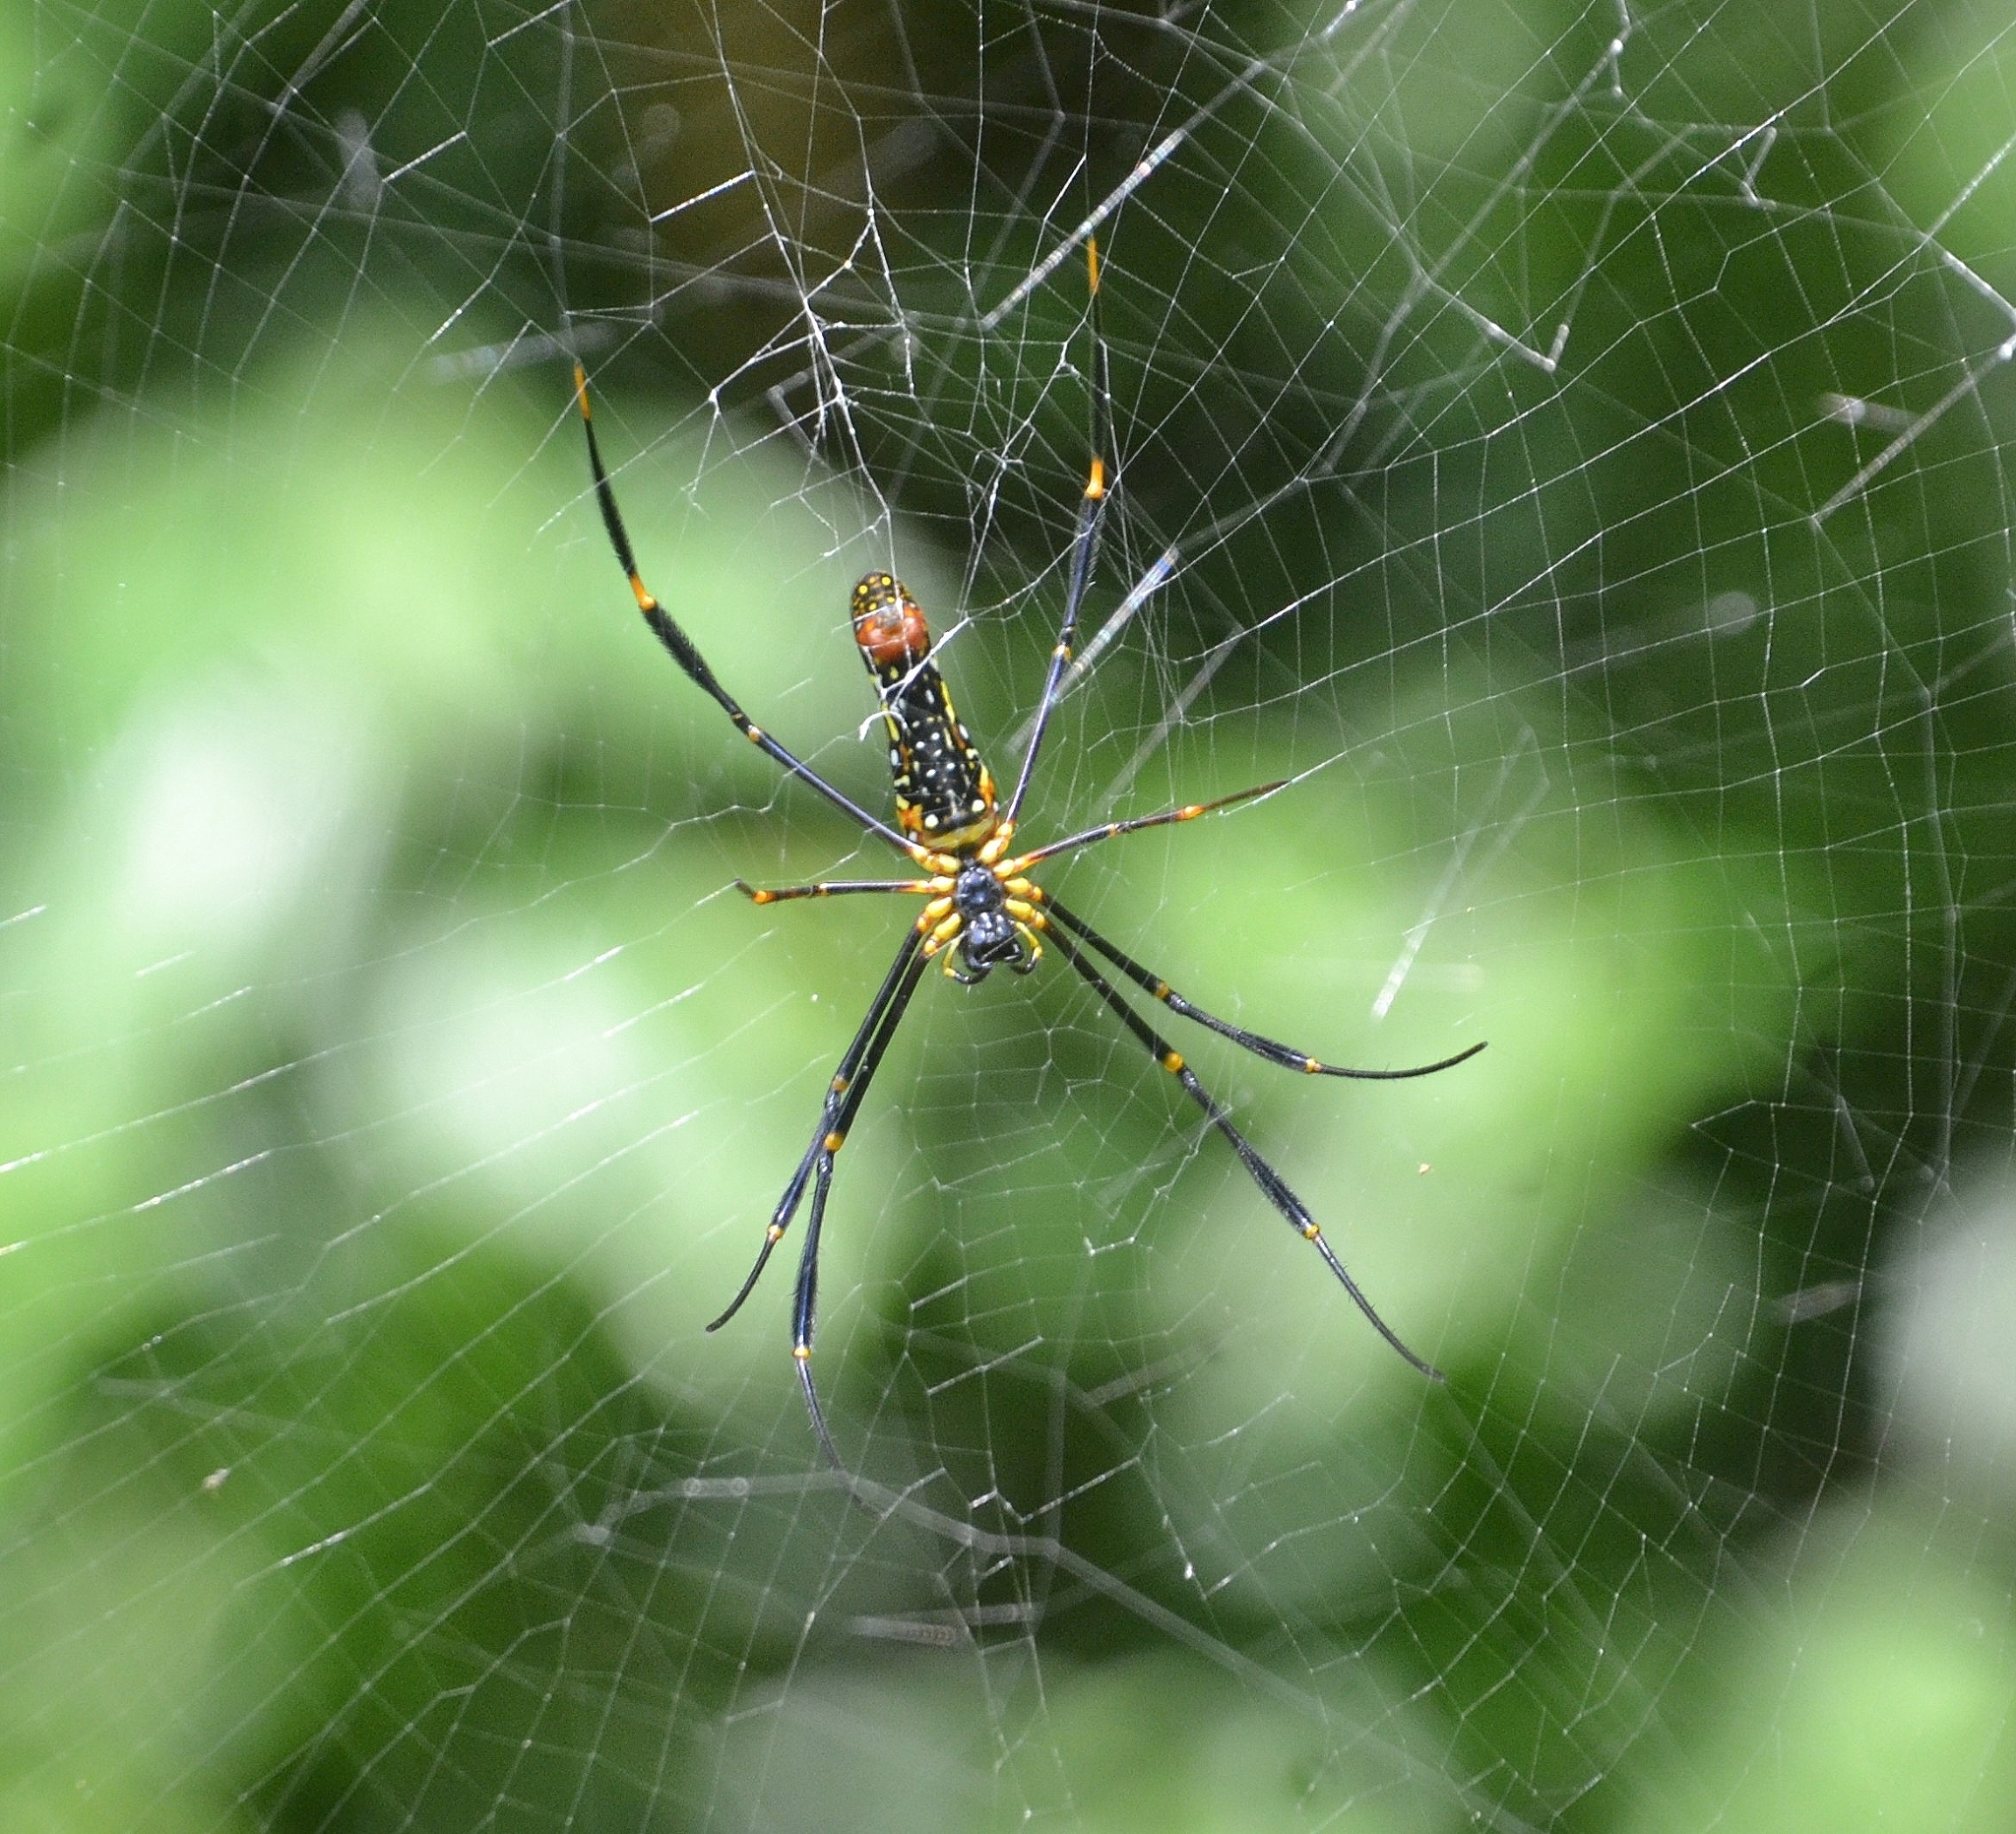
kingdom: Animalia
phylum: Arthropoda
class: Arachnida
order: Araneae
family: Araneidae
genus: Nephila
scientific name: Nephila pilipes
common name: Giant golden orb weaver
